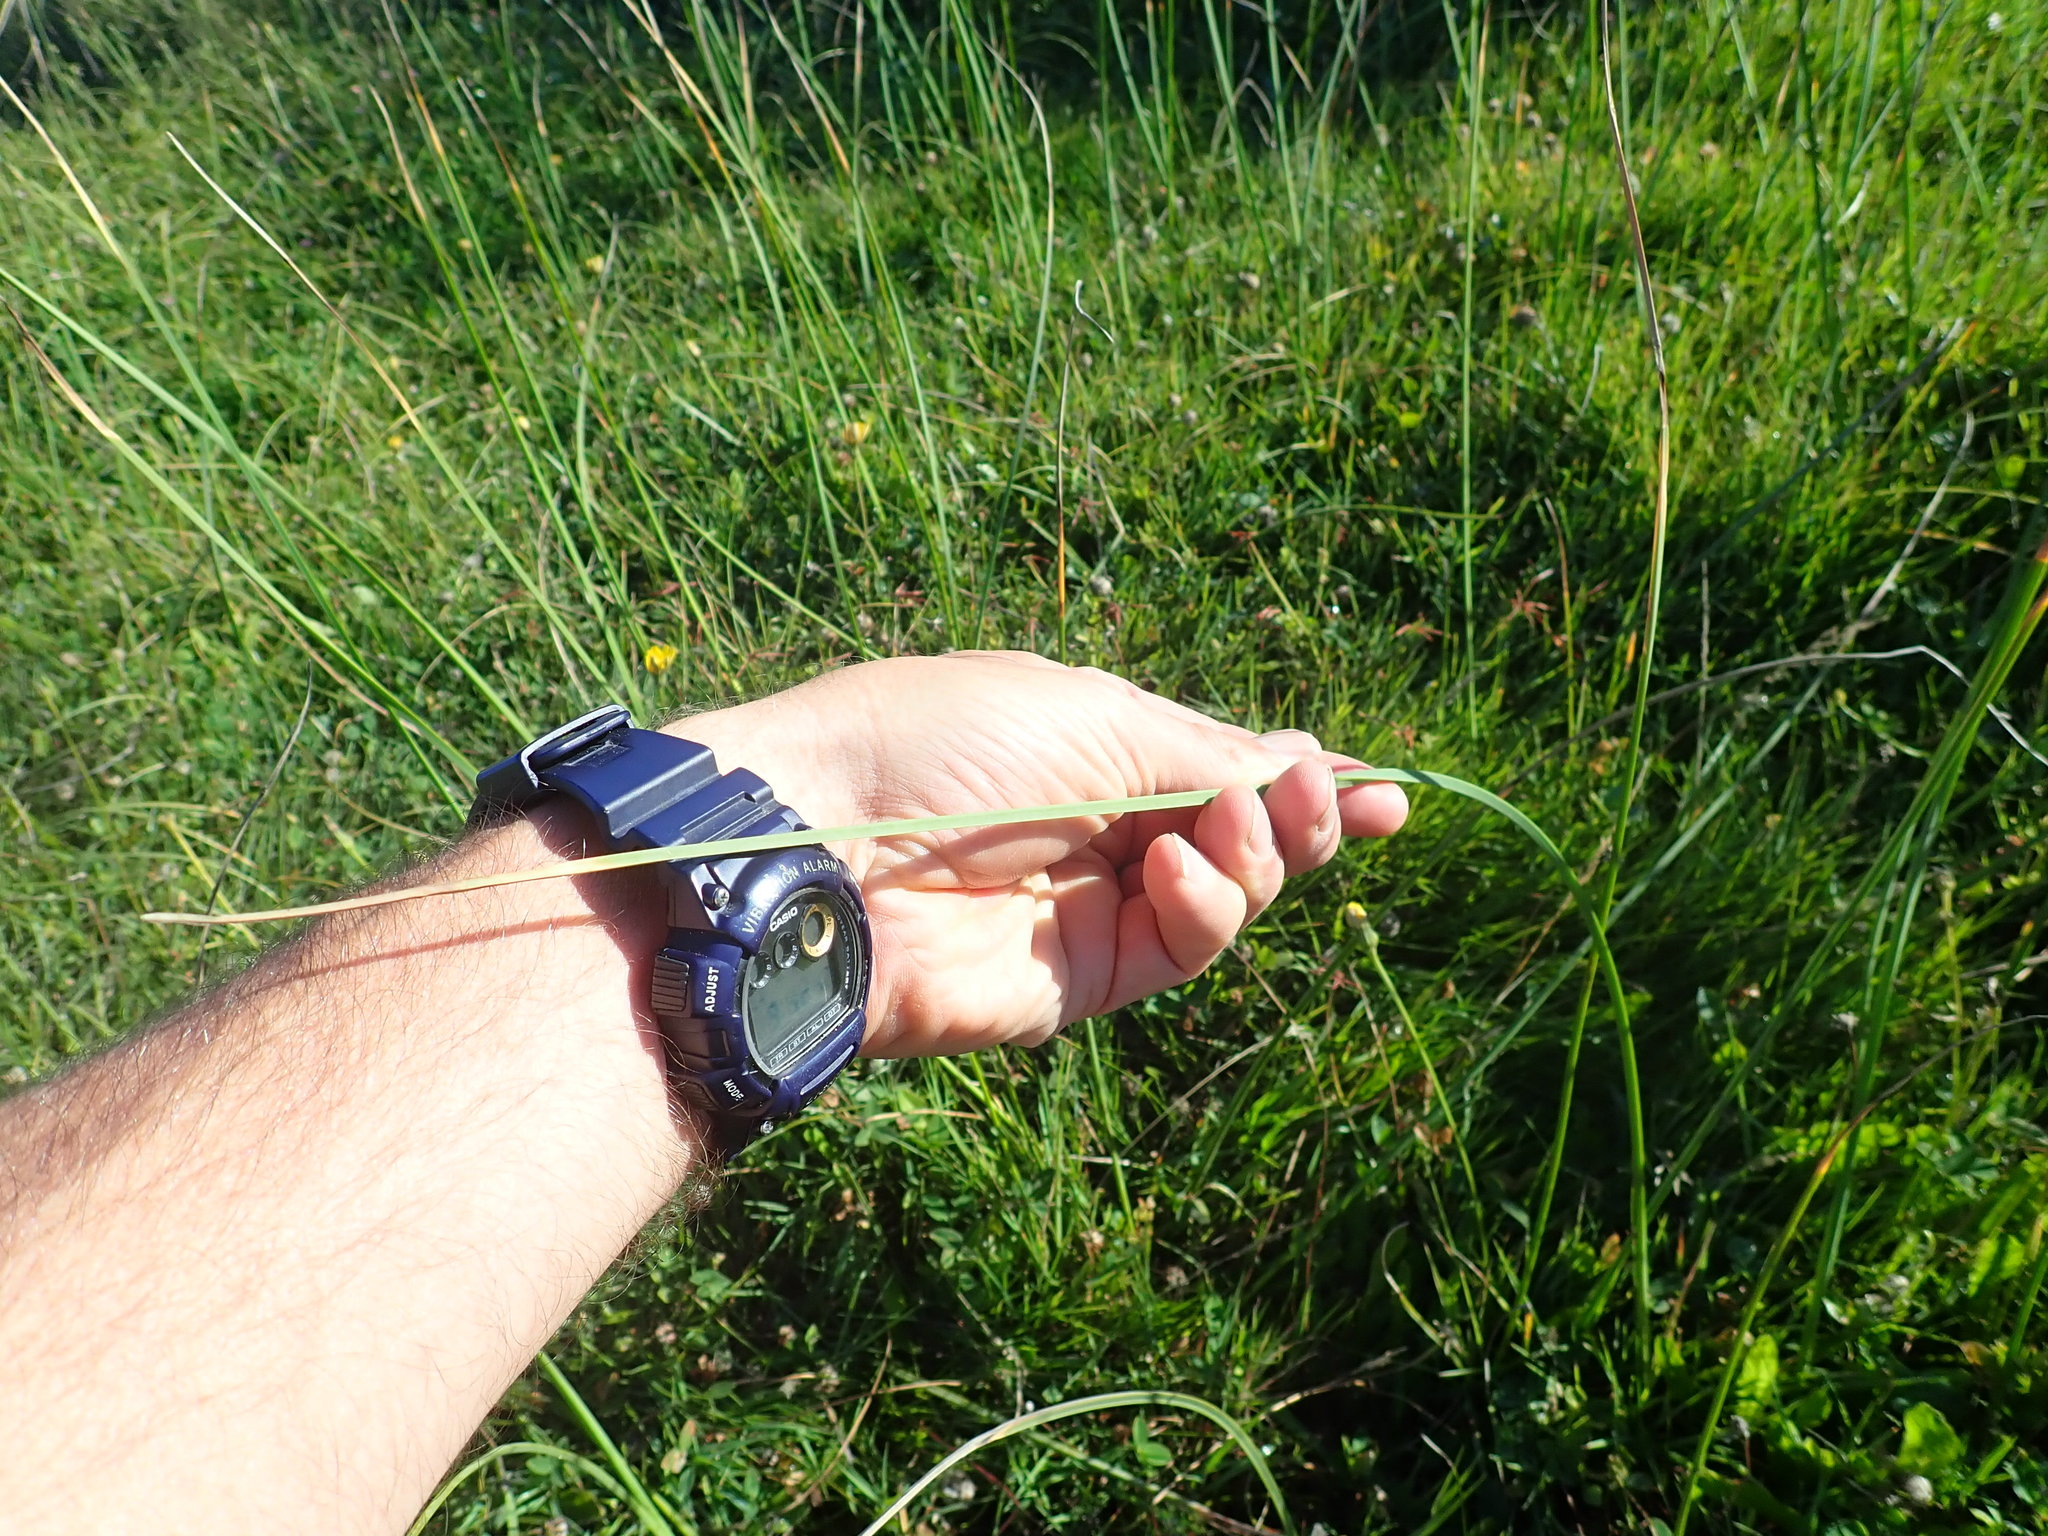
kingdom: Plantae
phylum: Tracheophyta
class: Liliopsida
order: Poales
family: Cyperaceae
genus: Schoenoplectus
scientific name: Schoenoplectus pungens
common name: Sharp club-rush
